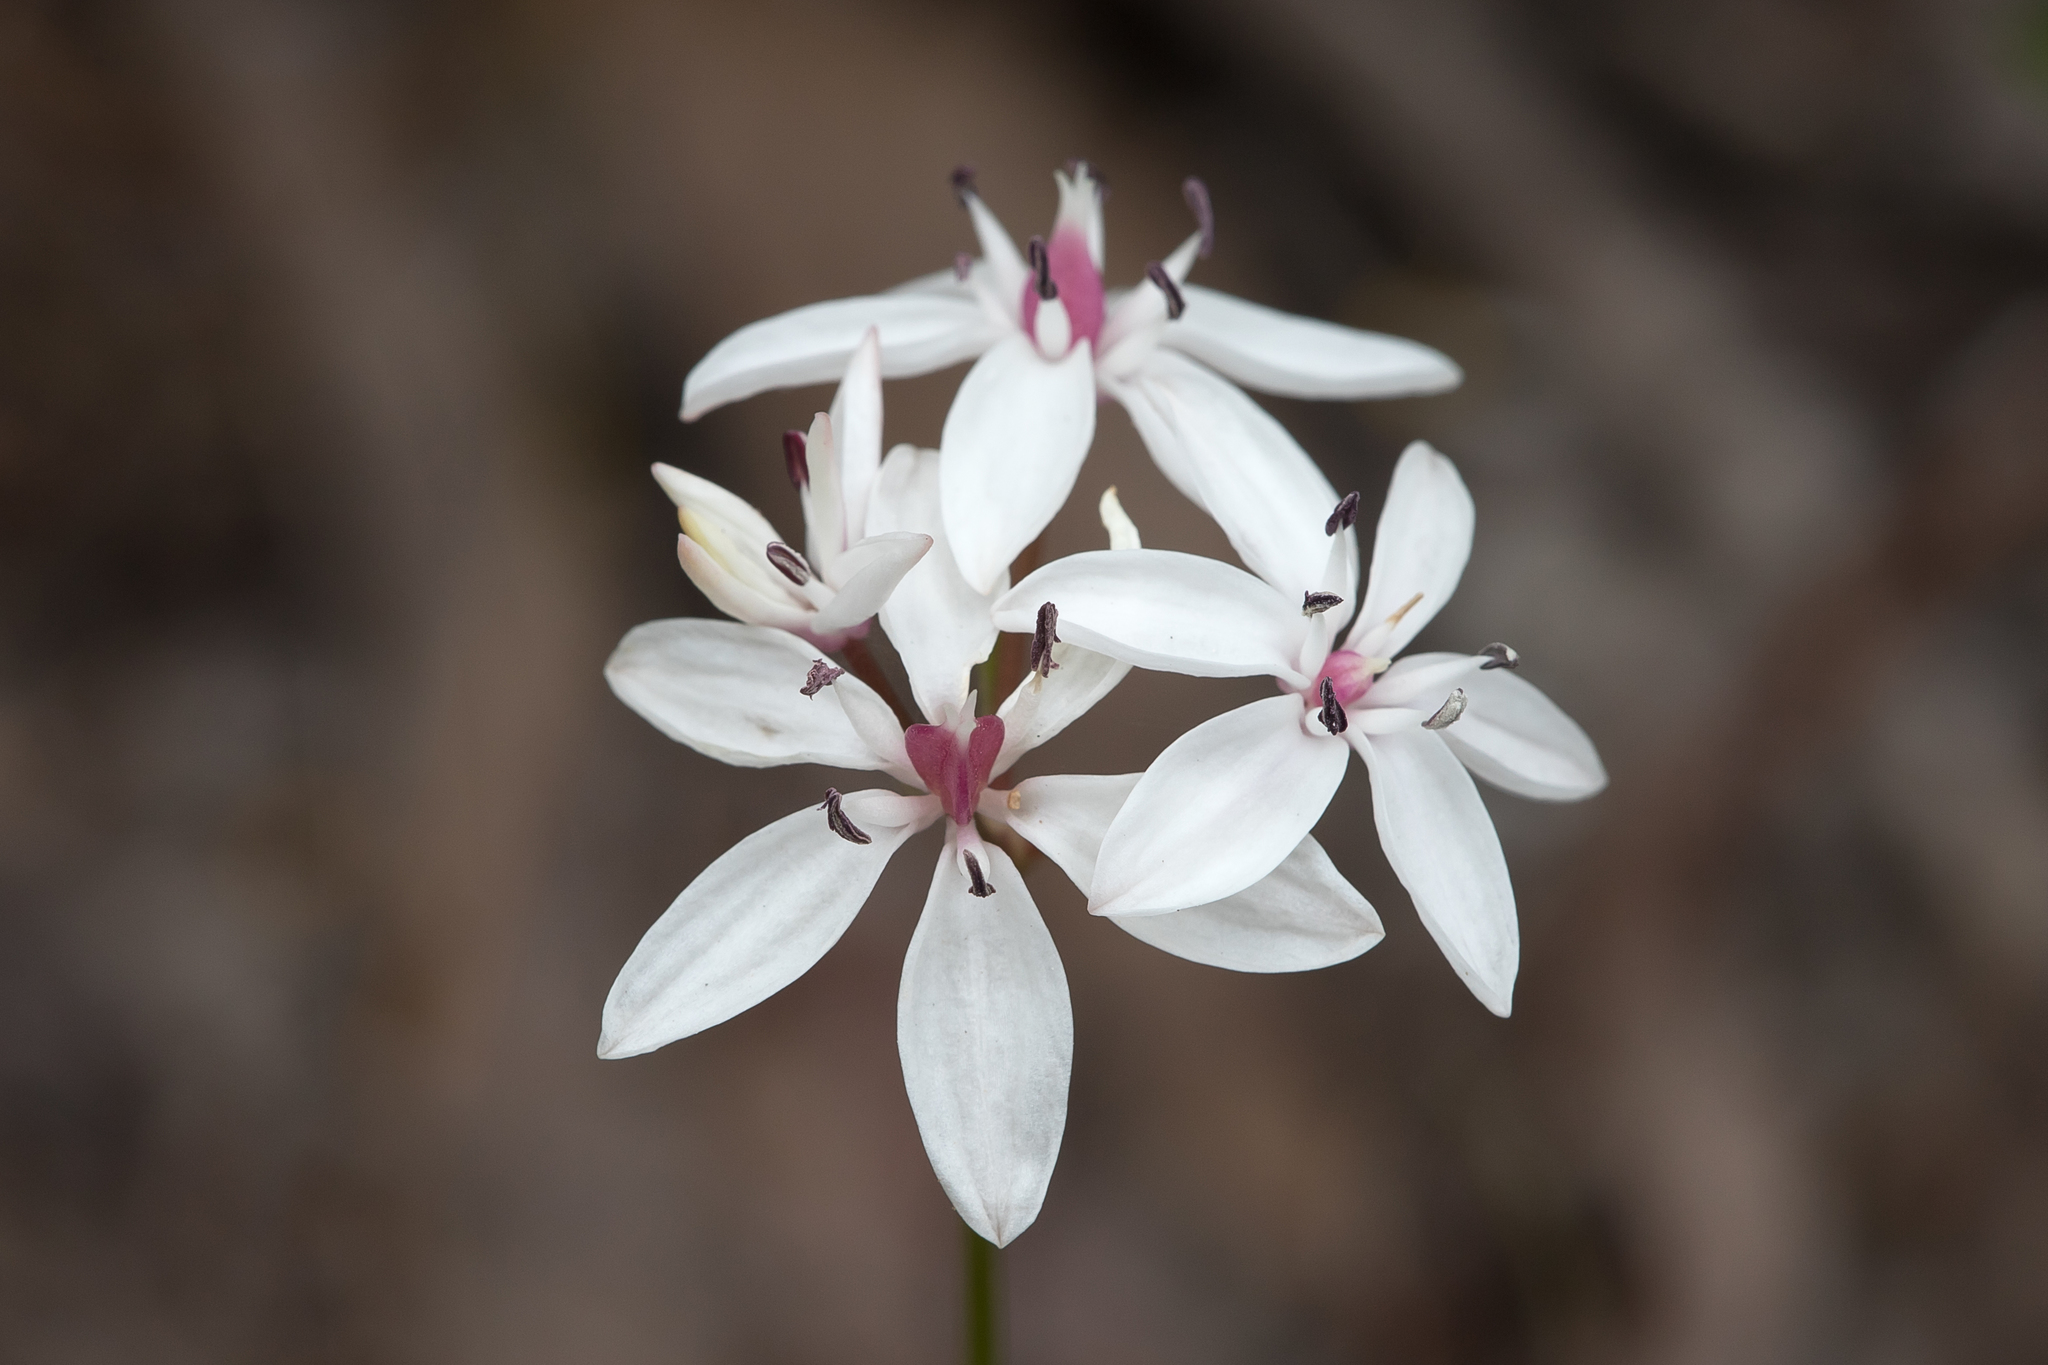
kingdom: Plantae
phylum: Tracheophyta
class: Liliopsida
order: Liliales
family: Colchicaceae
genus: Burchardia
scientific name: Burchardia umbellata
